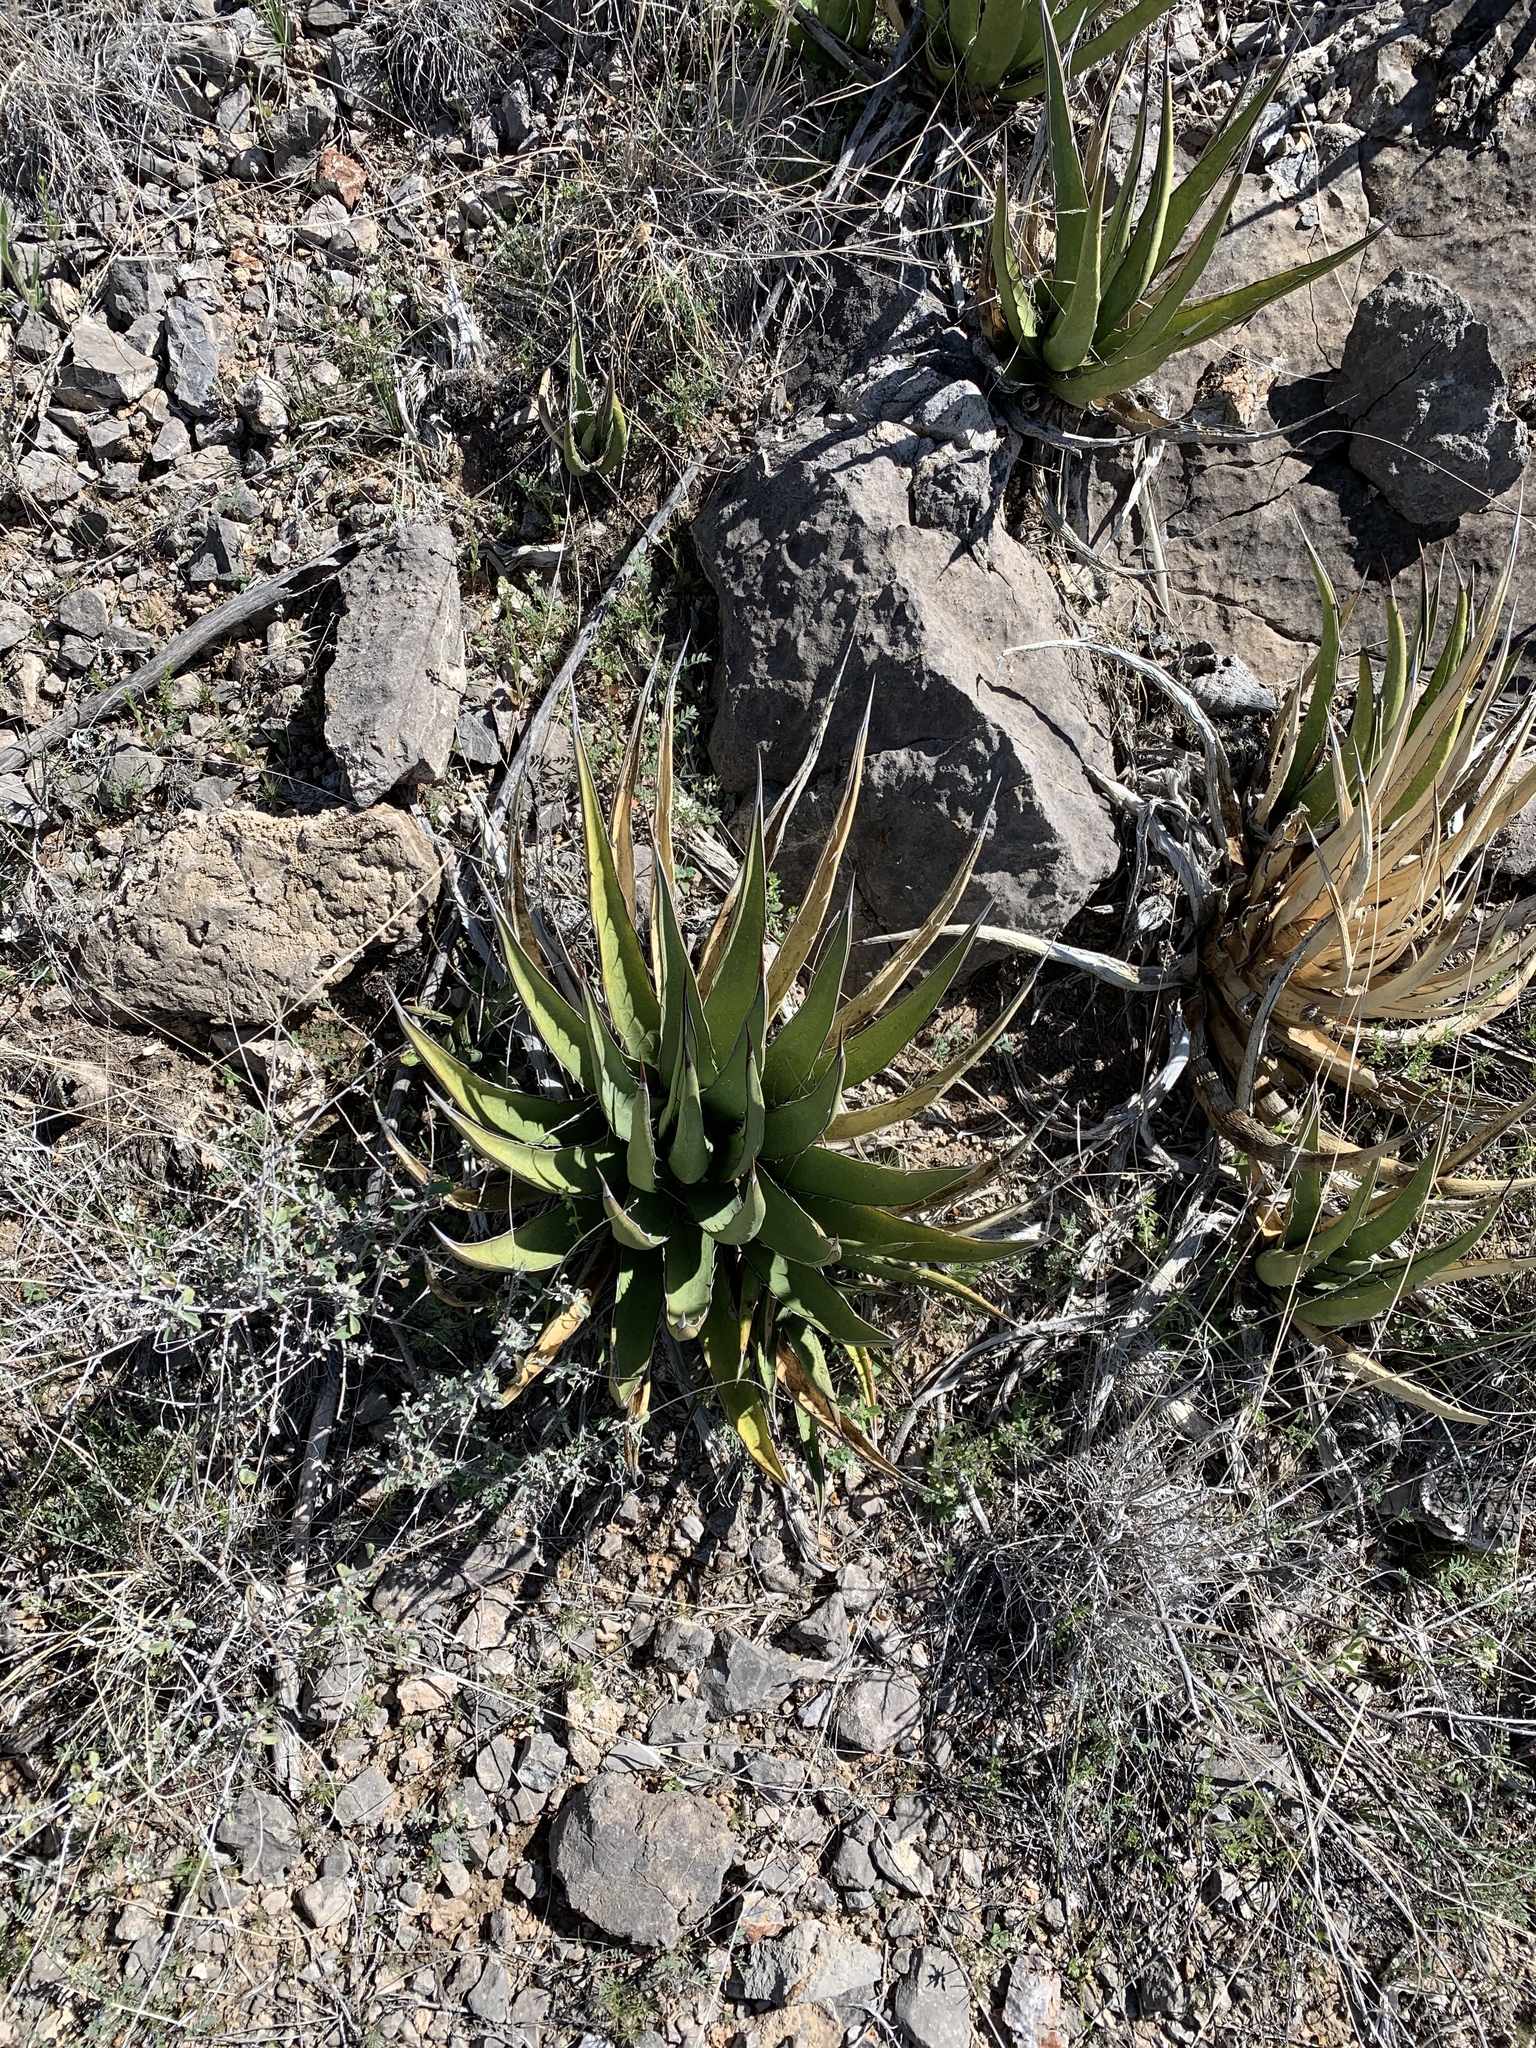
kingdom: Plantae
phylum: Tracheophyta
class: Liliopsida
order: Asparagales
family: Asparagaceae
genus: Agave
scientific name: Agave lechuguilla
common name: Lecheguilla agave
